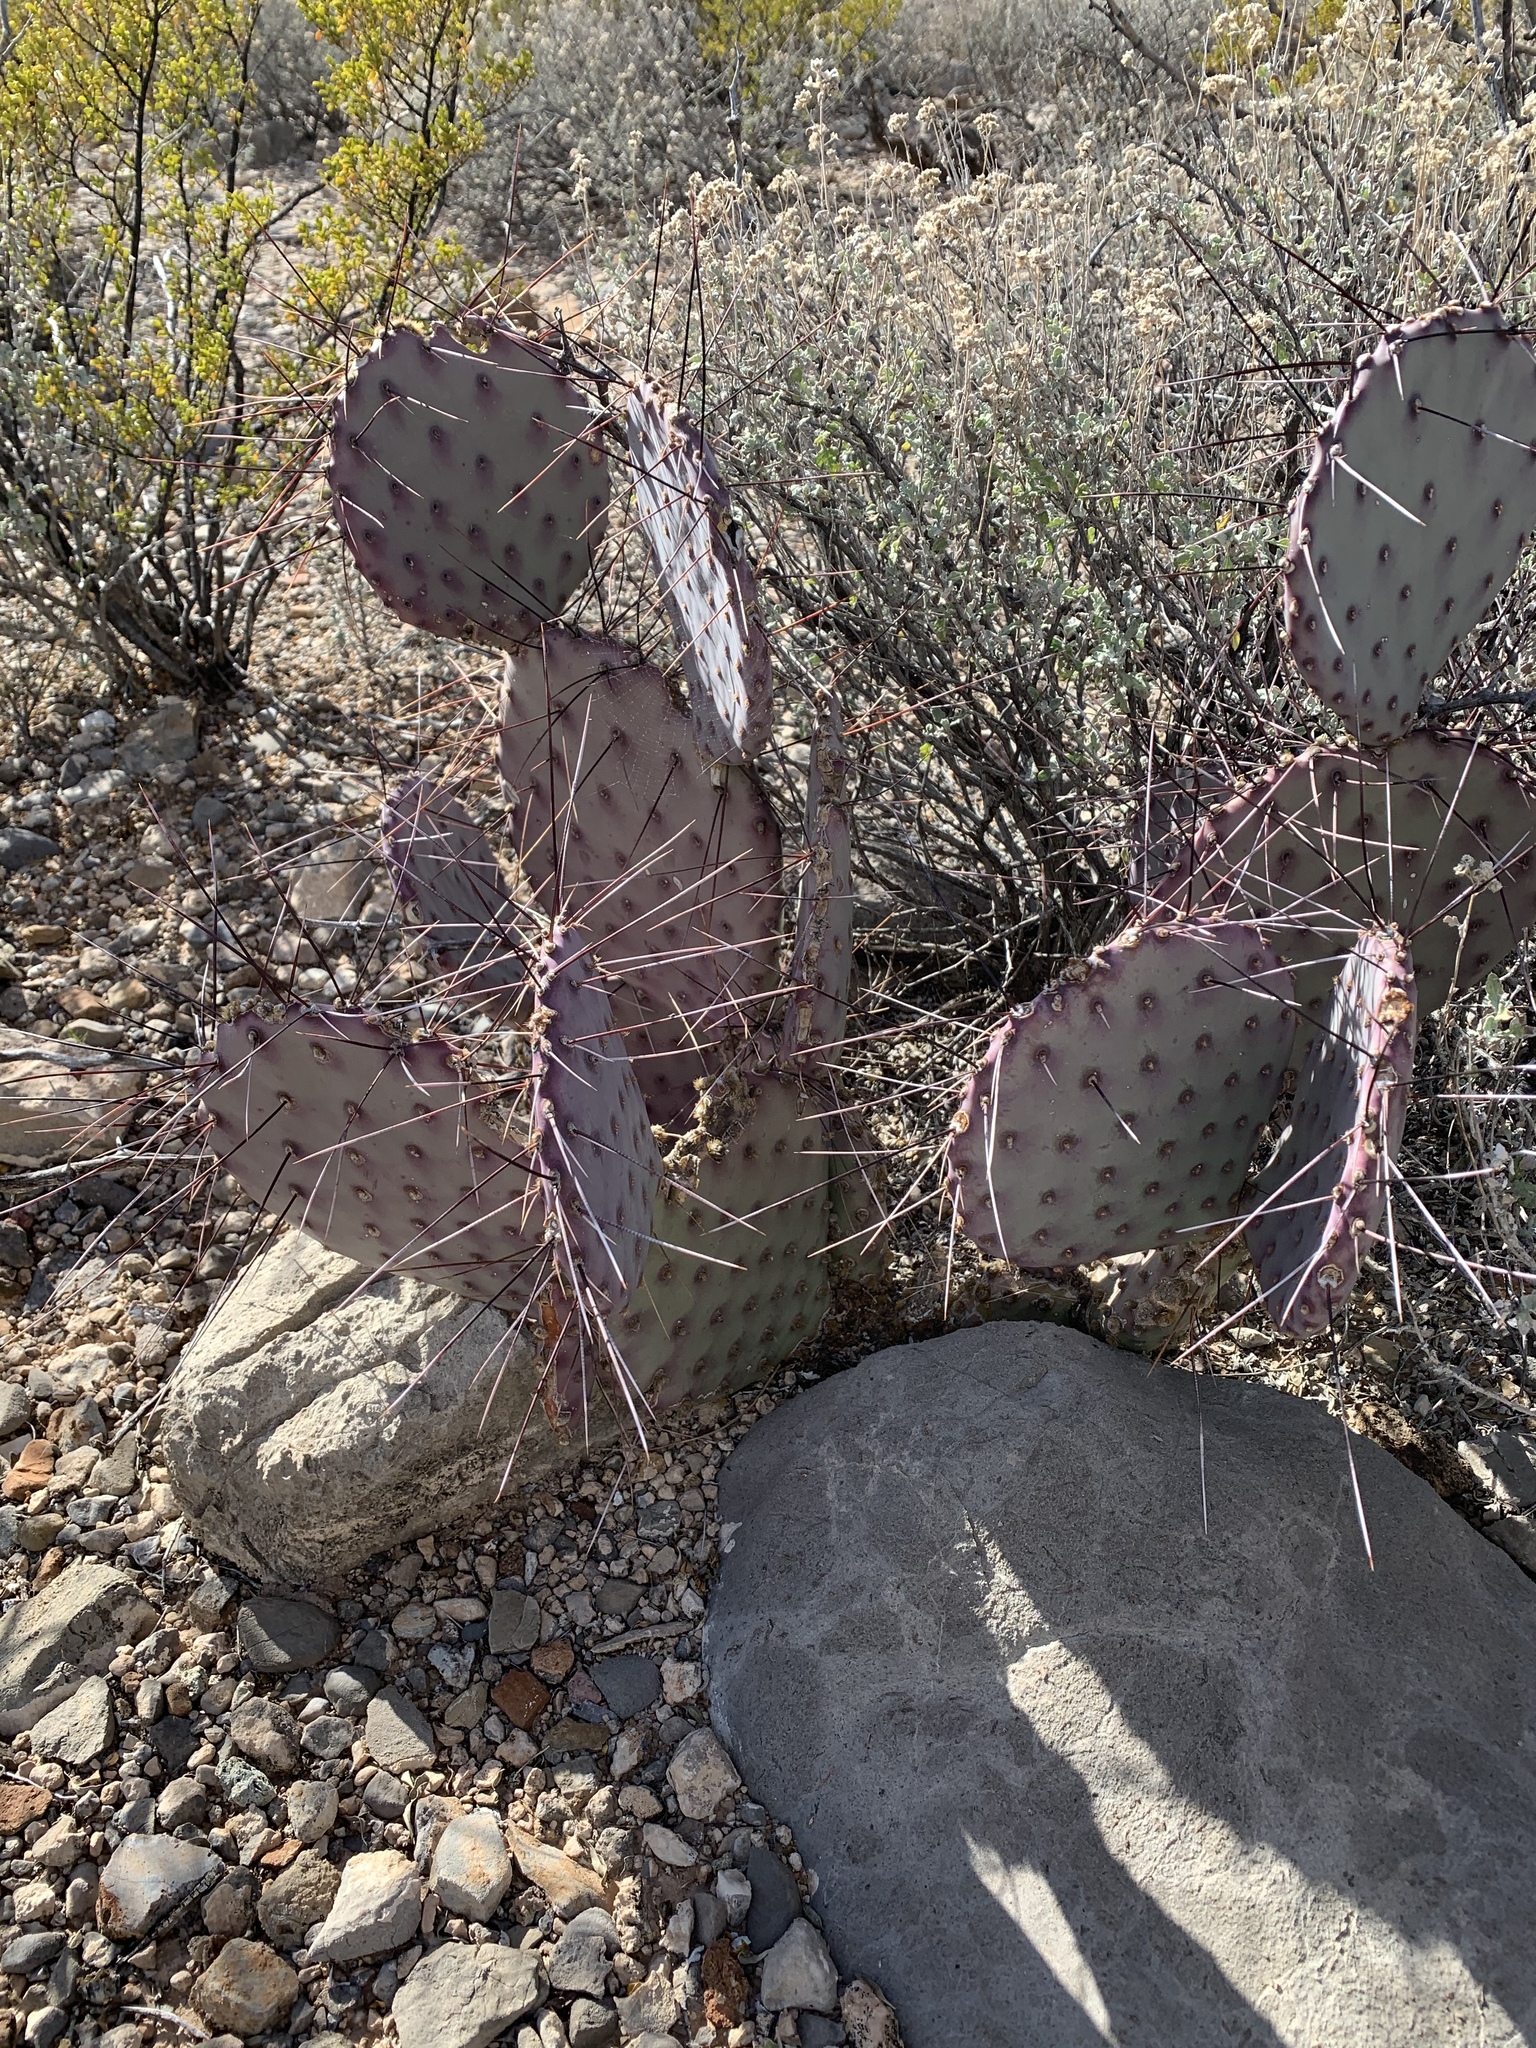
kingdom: Plantae
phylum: Tracheophyta
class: Magnoliopsida
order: Caryophyllales
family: Cactaceae
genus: Opuntia
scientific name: Opuntia macrocentra
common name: Purple prickly-pear
